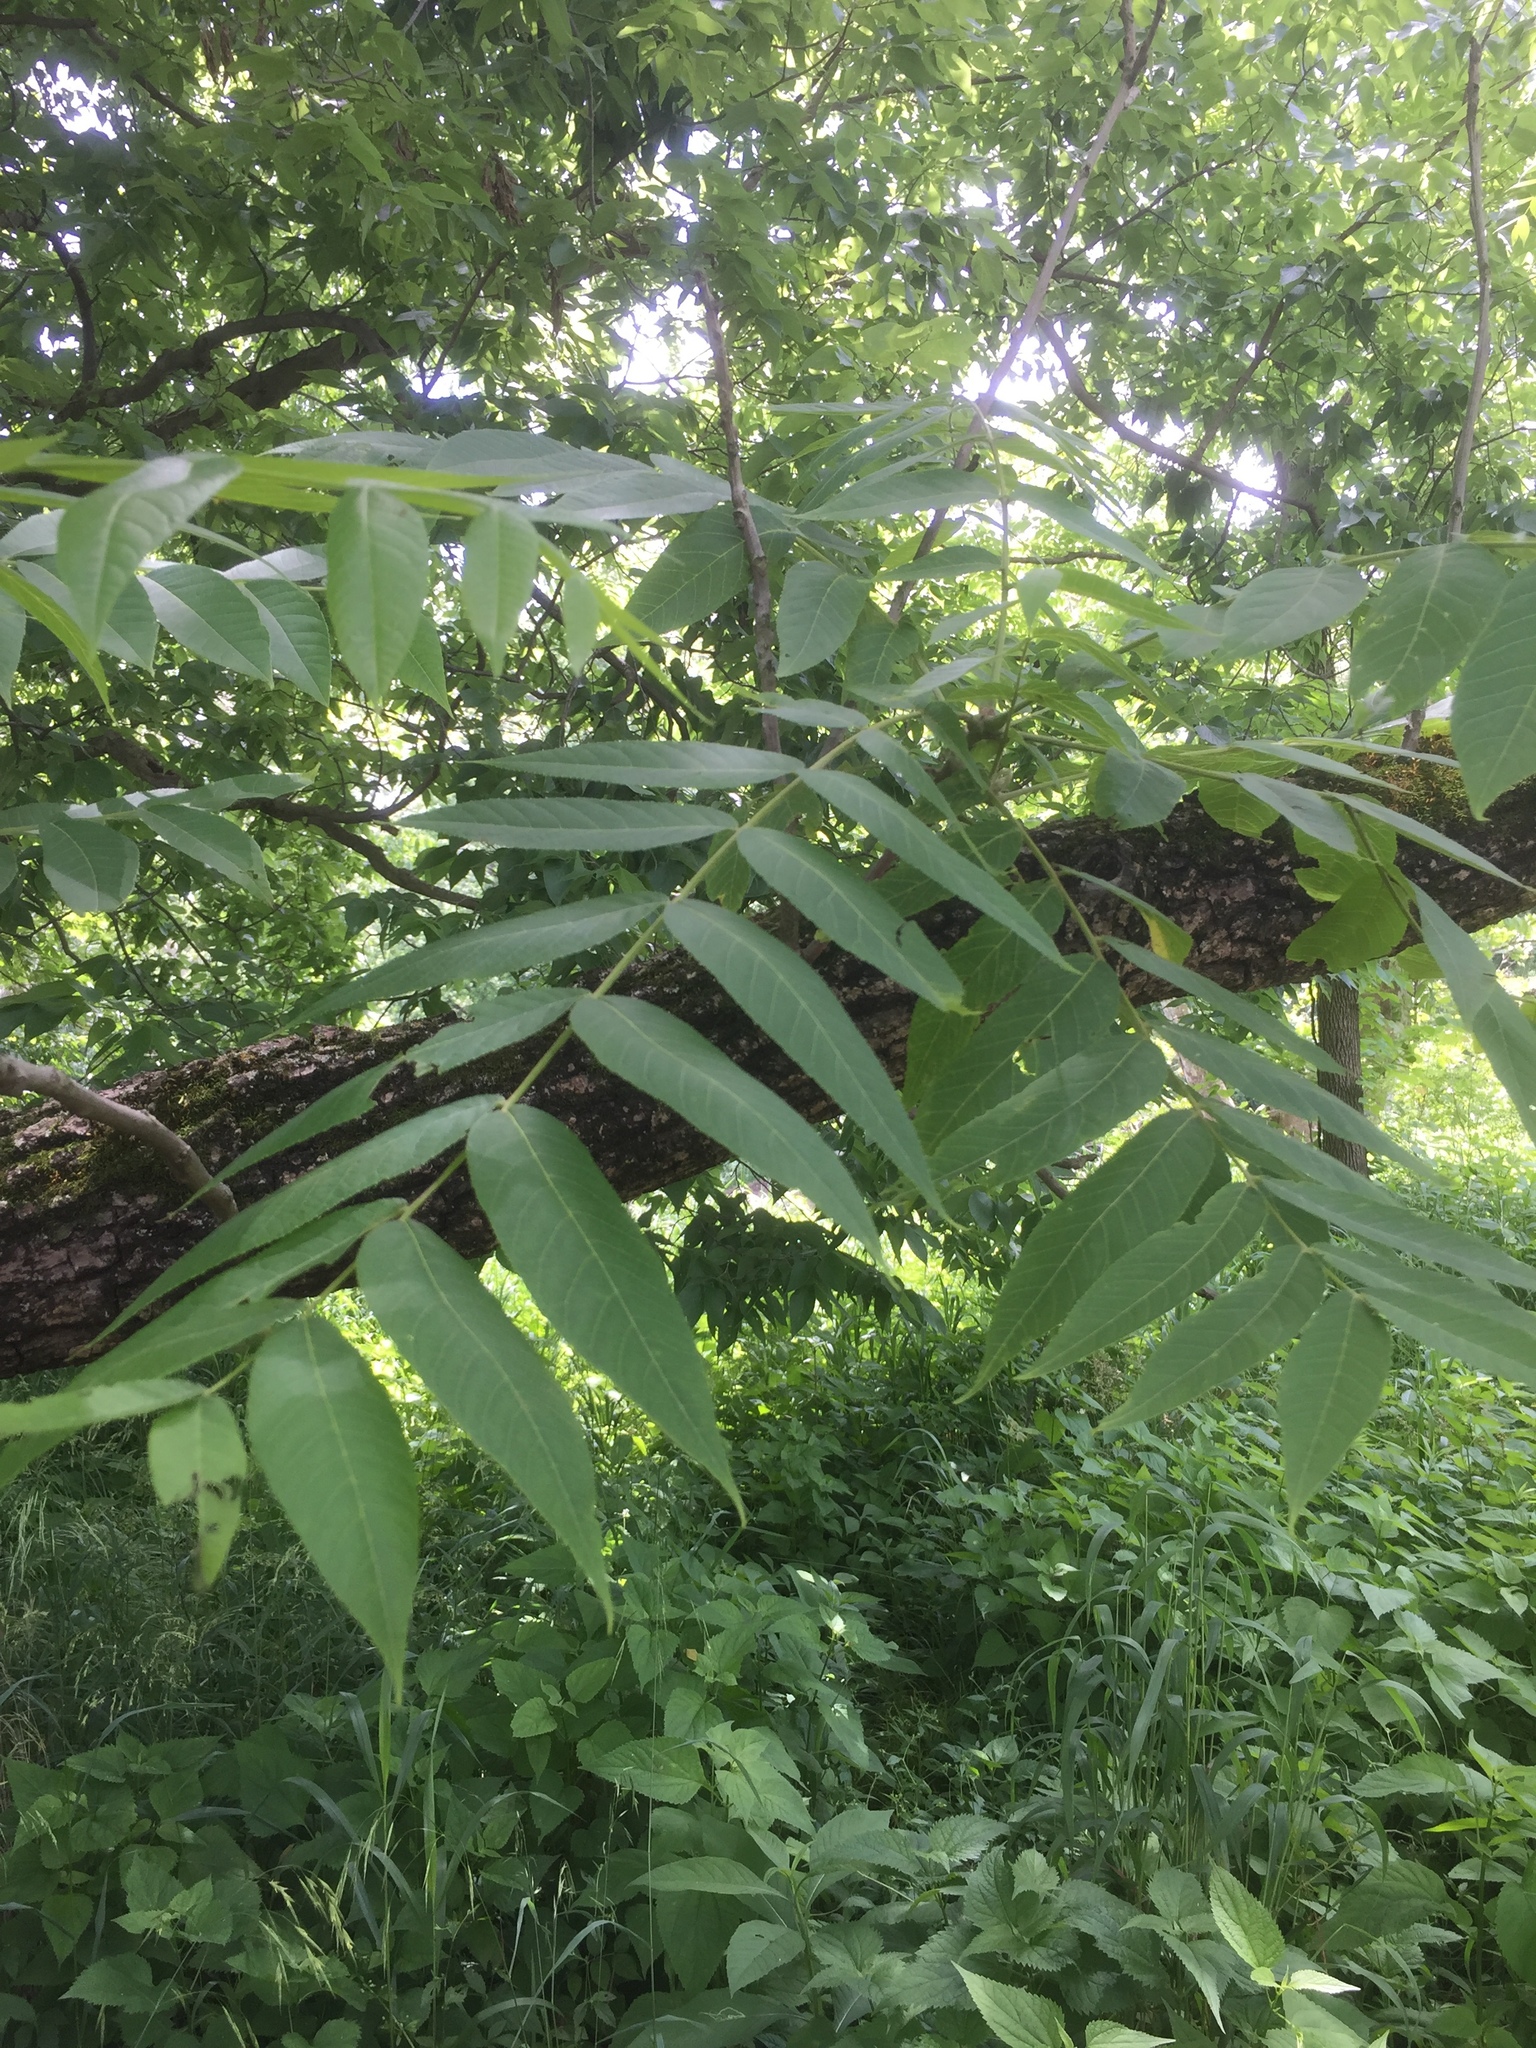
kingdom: Plantae
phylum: Tracheophyta
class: Magnoliopsida
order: Fagales
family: Juglandaceae
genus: Juglans
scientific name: Juglans nigra
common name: Black walnut
